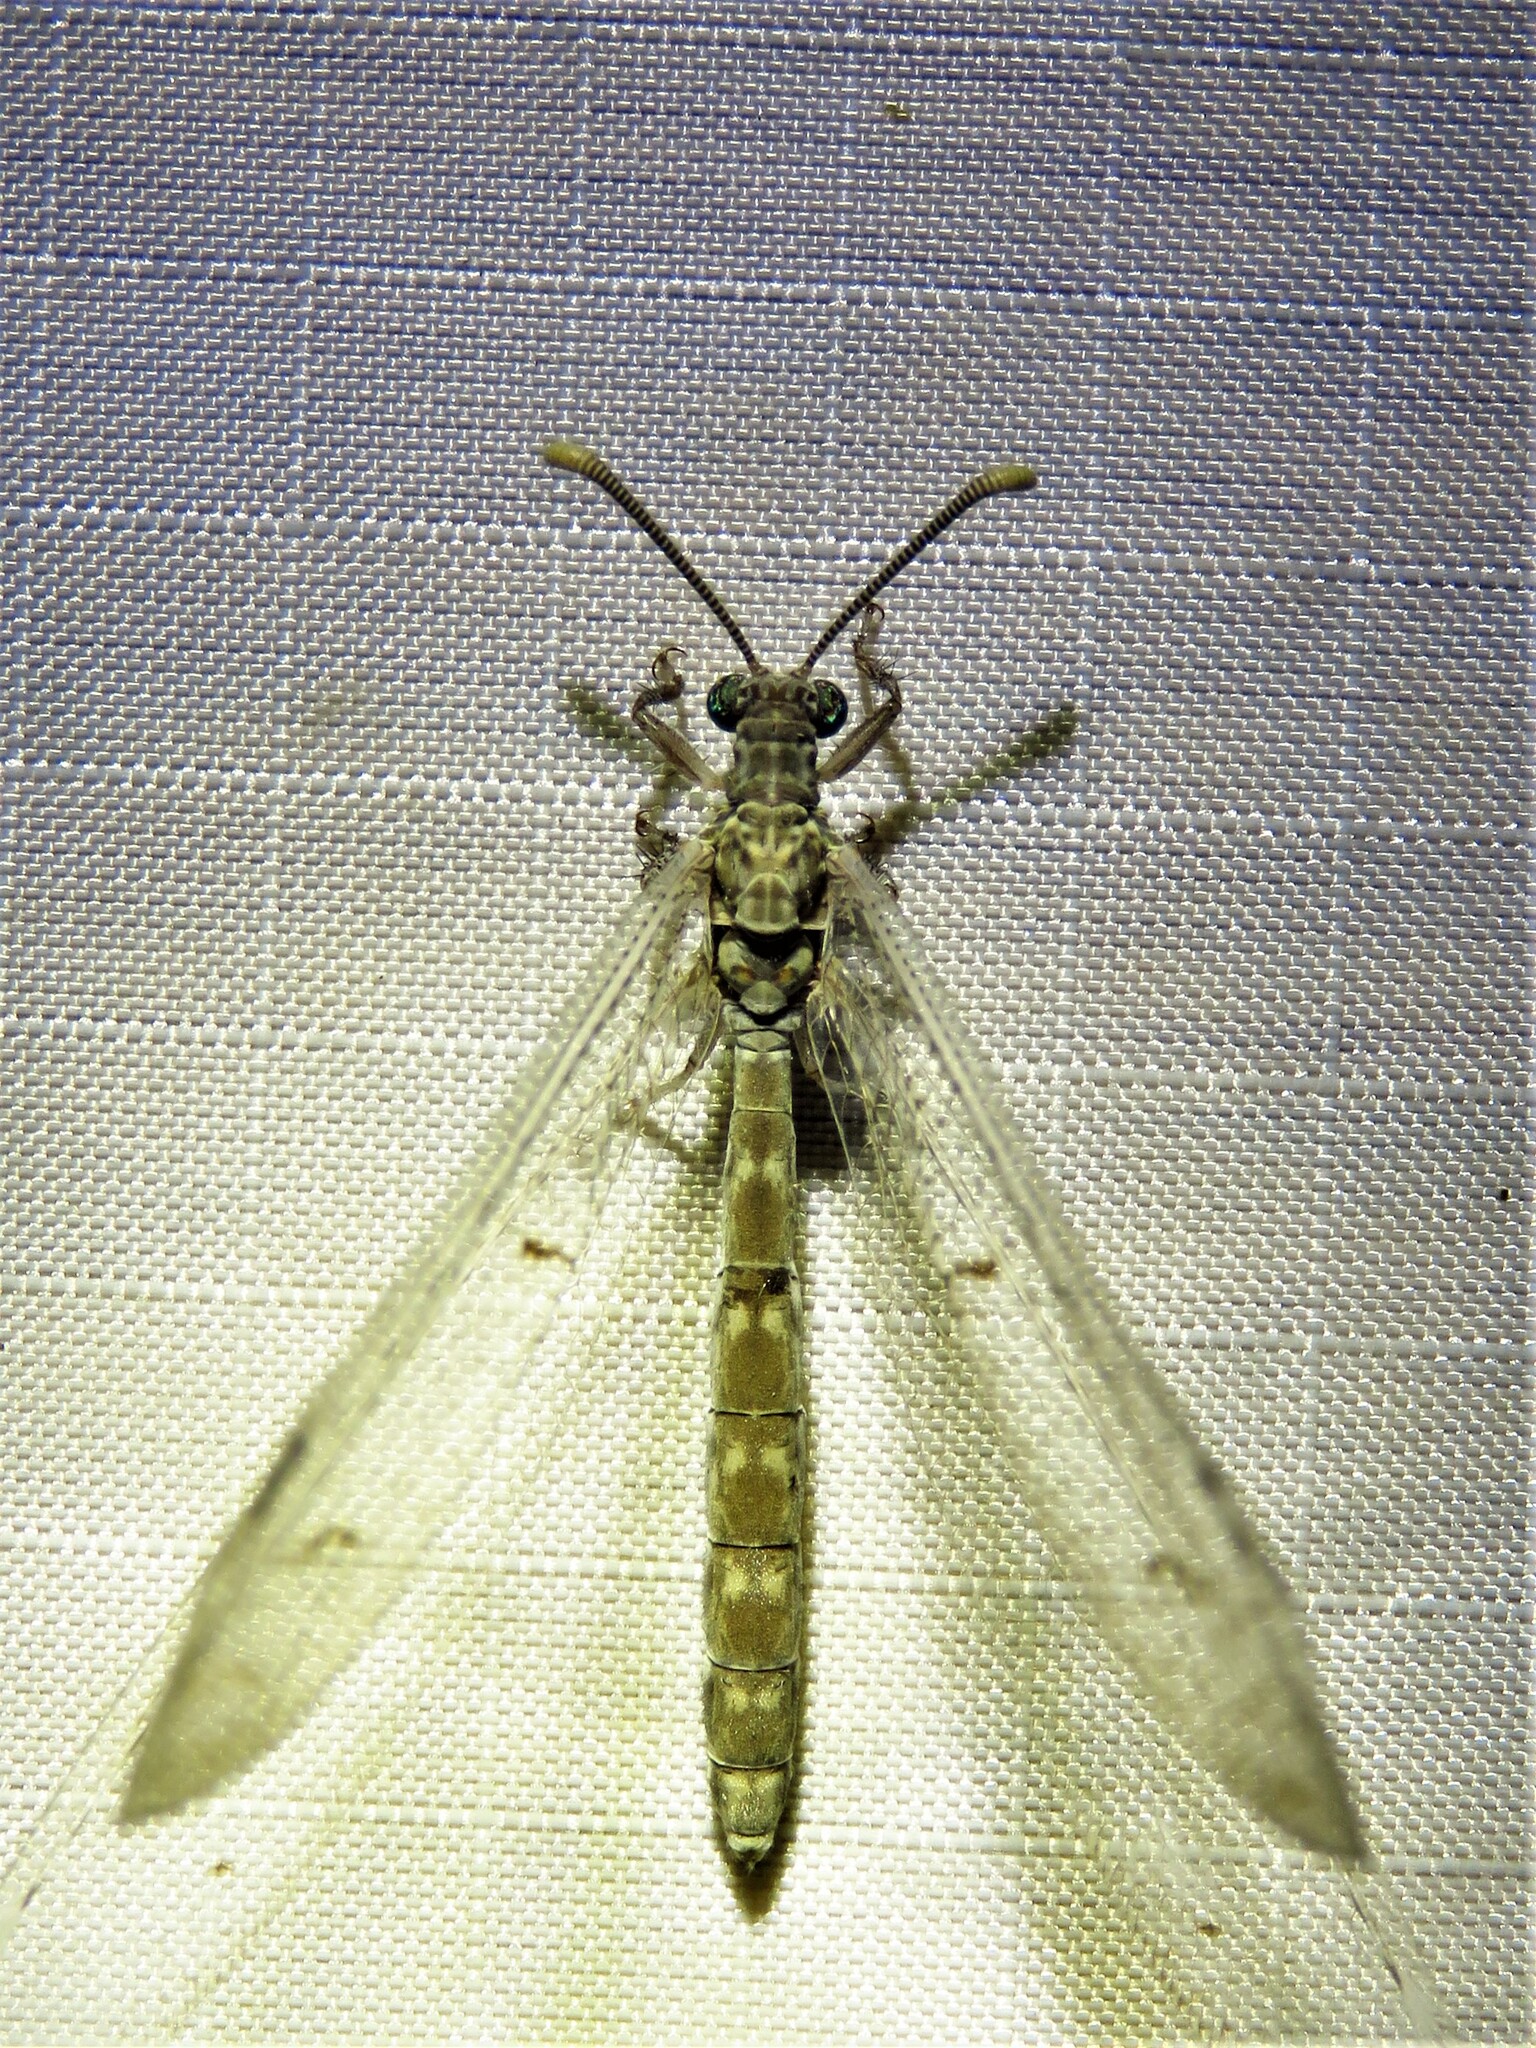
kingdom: Animalia
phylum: Arthropoda
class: Insecta
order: Neuroptera
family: Myrmeleontidae
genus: Euptilon
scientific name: Euptilon ornatum
